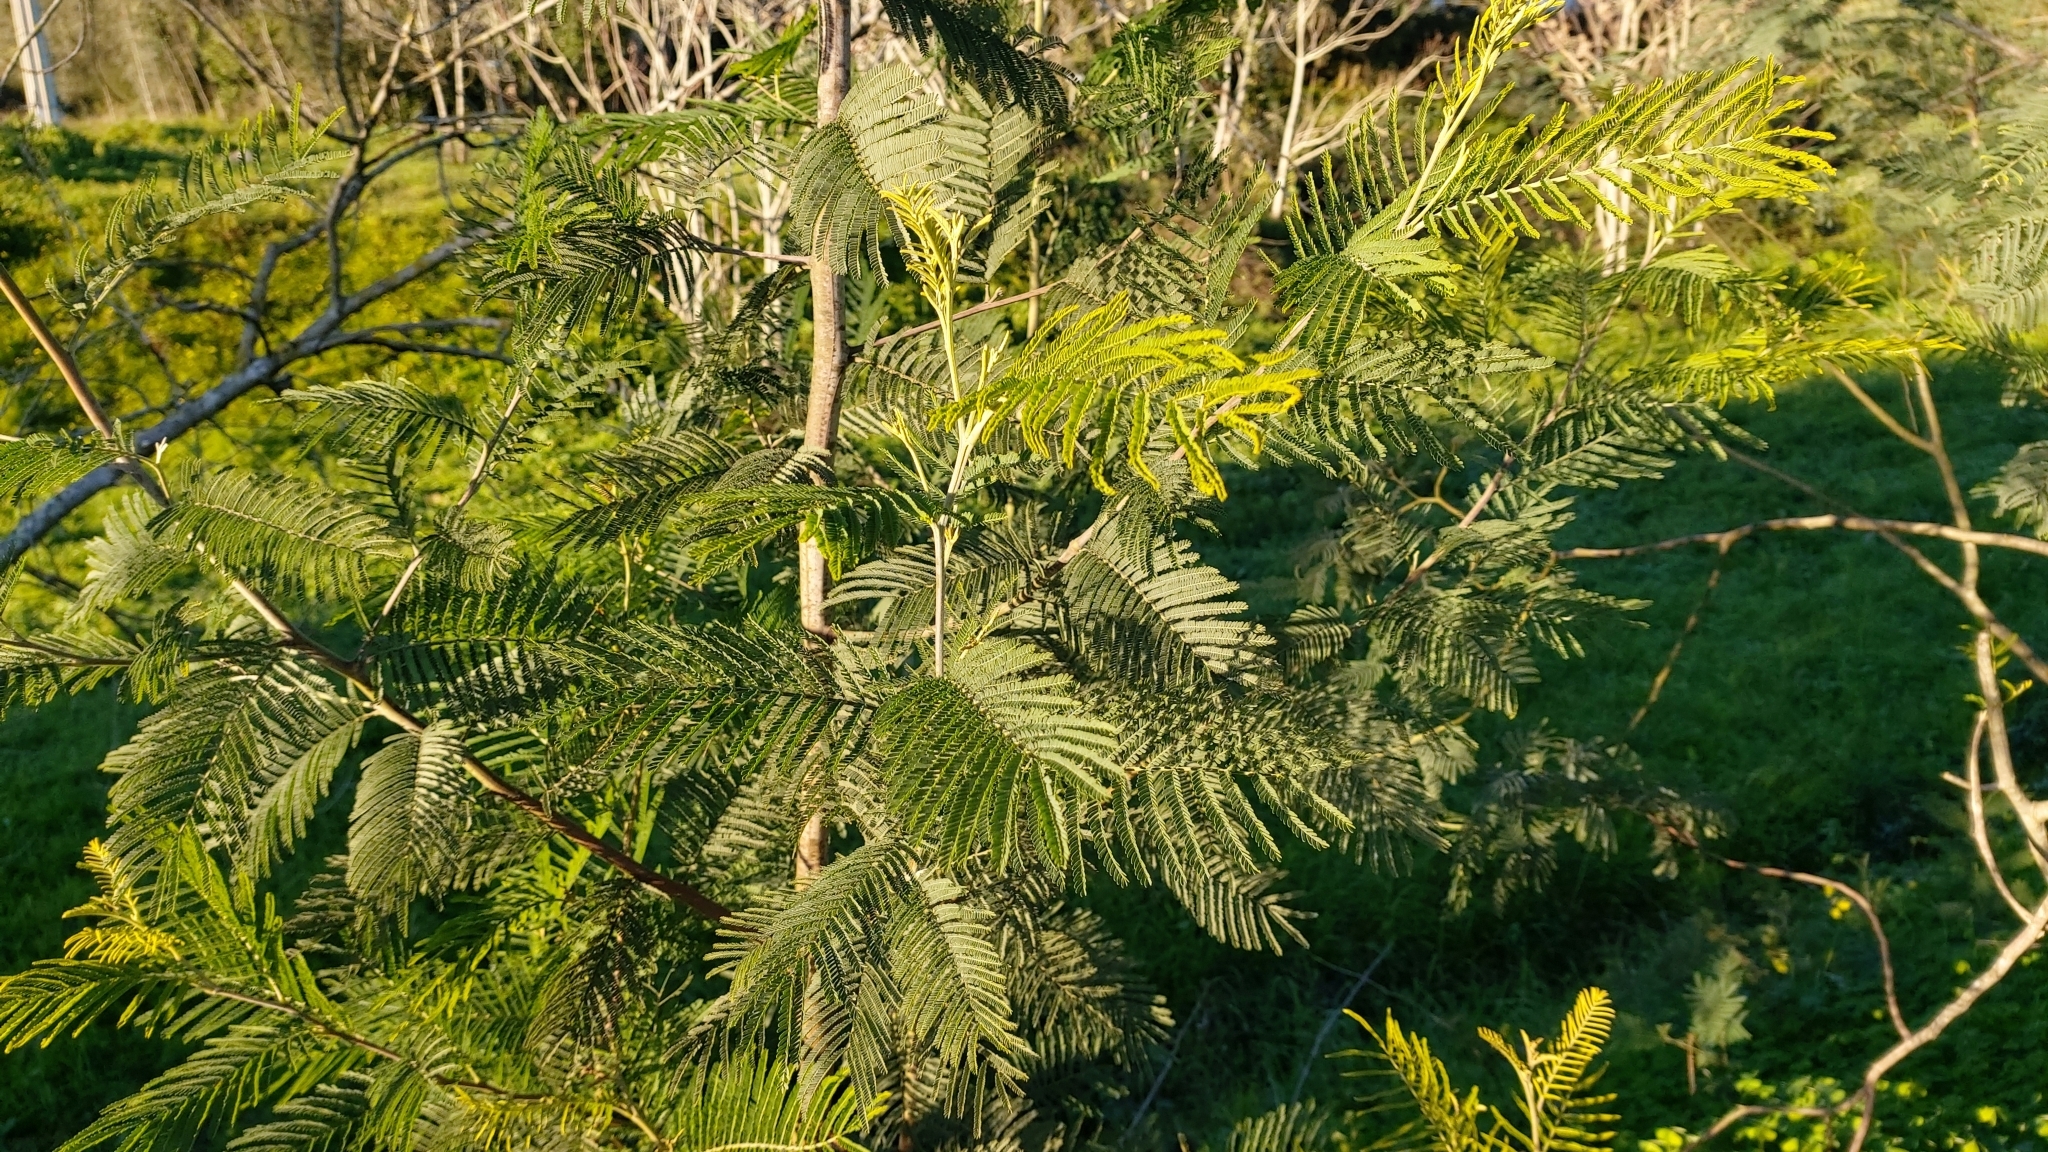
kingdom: Plantae
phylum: Tracheophyta
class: Magnoliopsida
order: Fabales
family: Fabaceae
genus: Acacia
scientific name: Acacia dealbata
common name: Silver wattle
